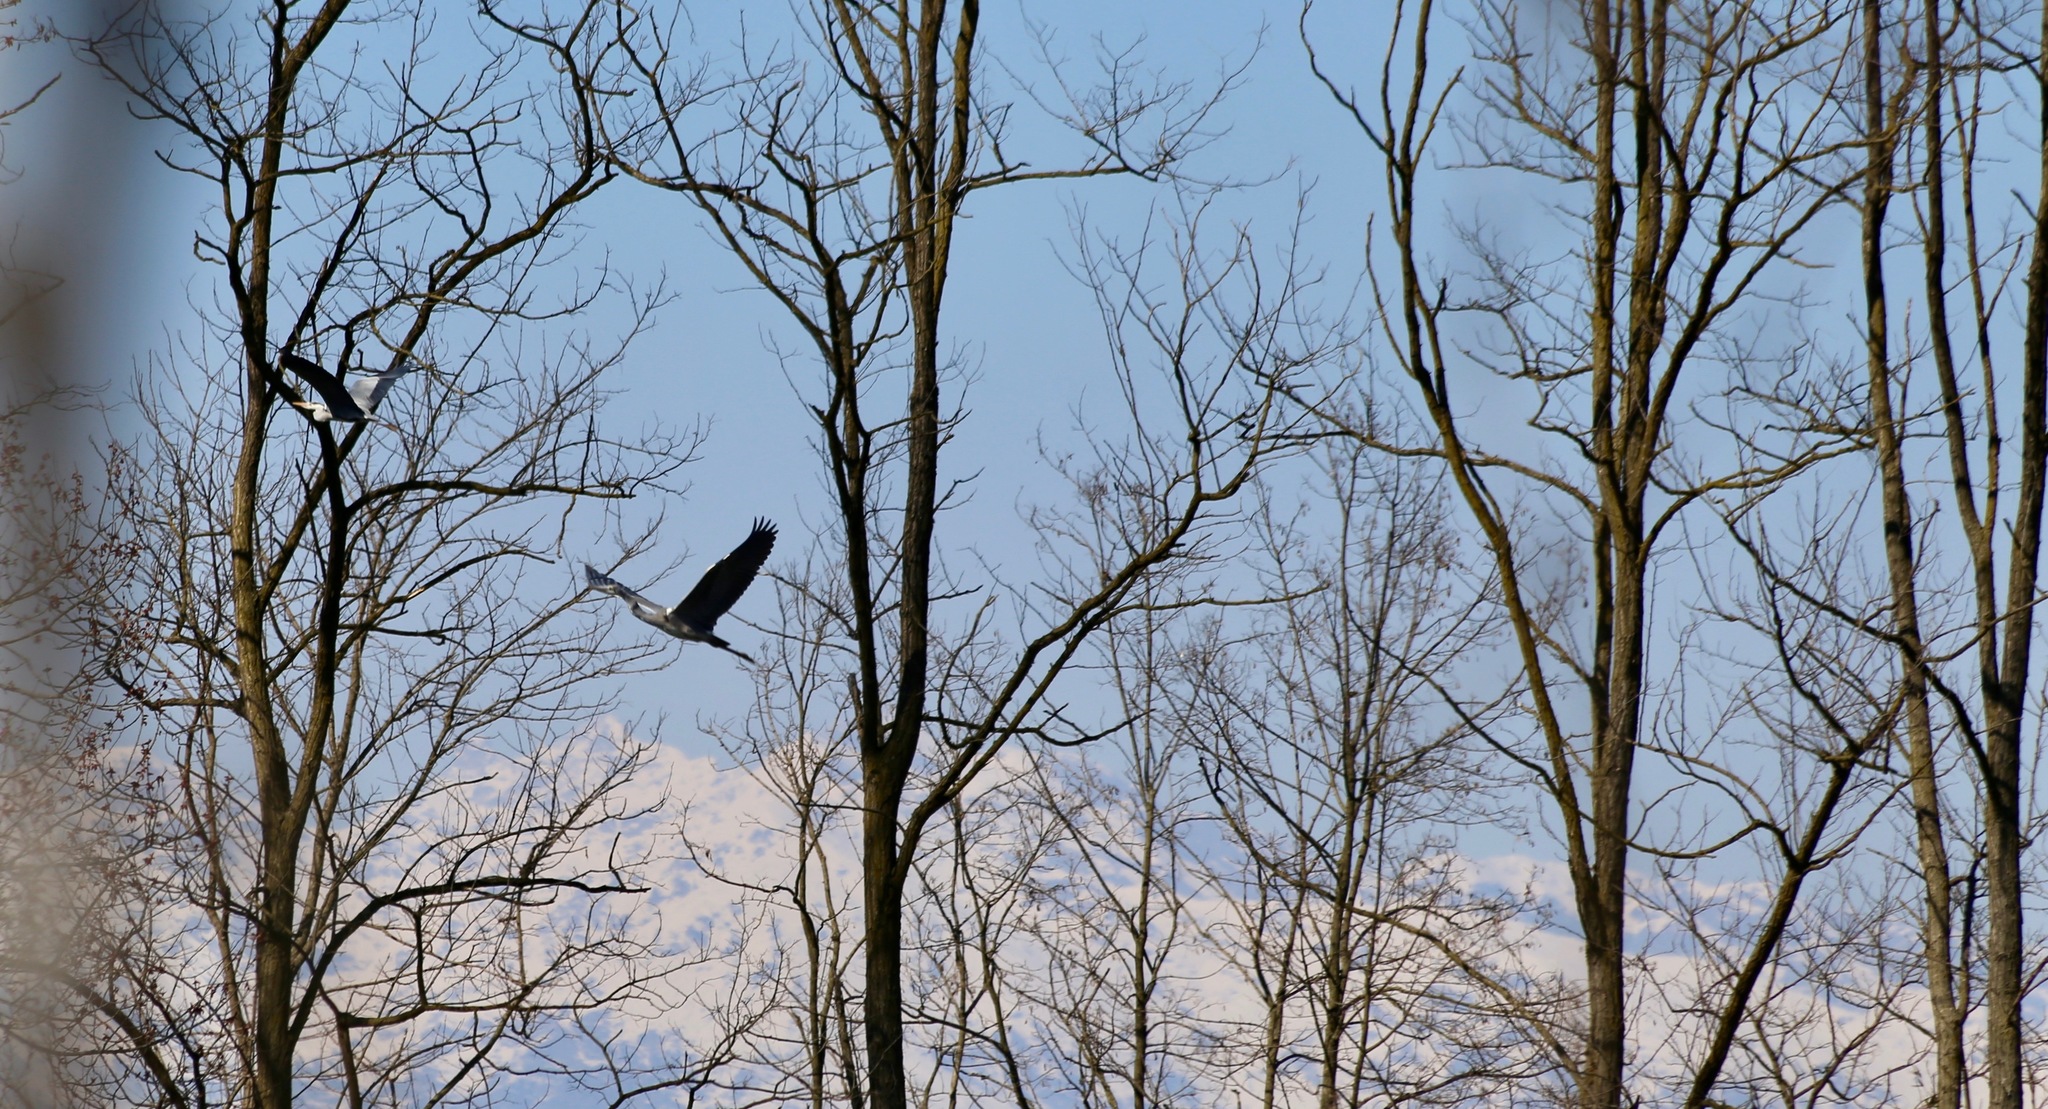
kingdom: Animalia
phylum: Chordata
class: Aves
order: Pelecaniformes
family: Ardeidae
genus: Ardea
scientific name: Ardea cinerea
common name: Grey heron
